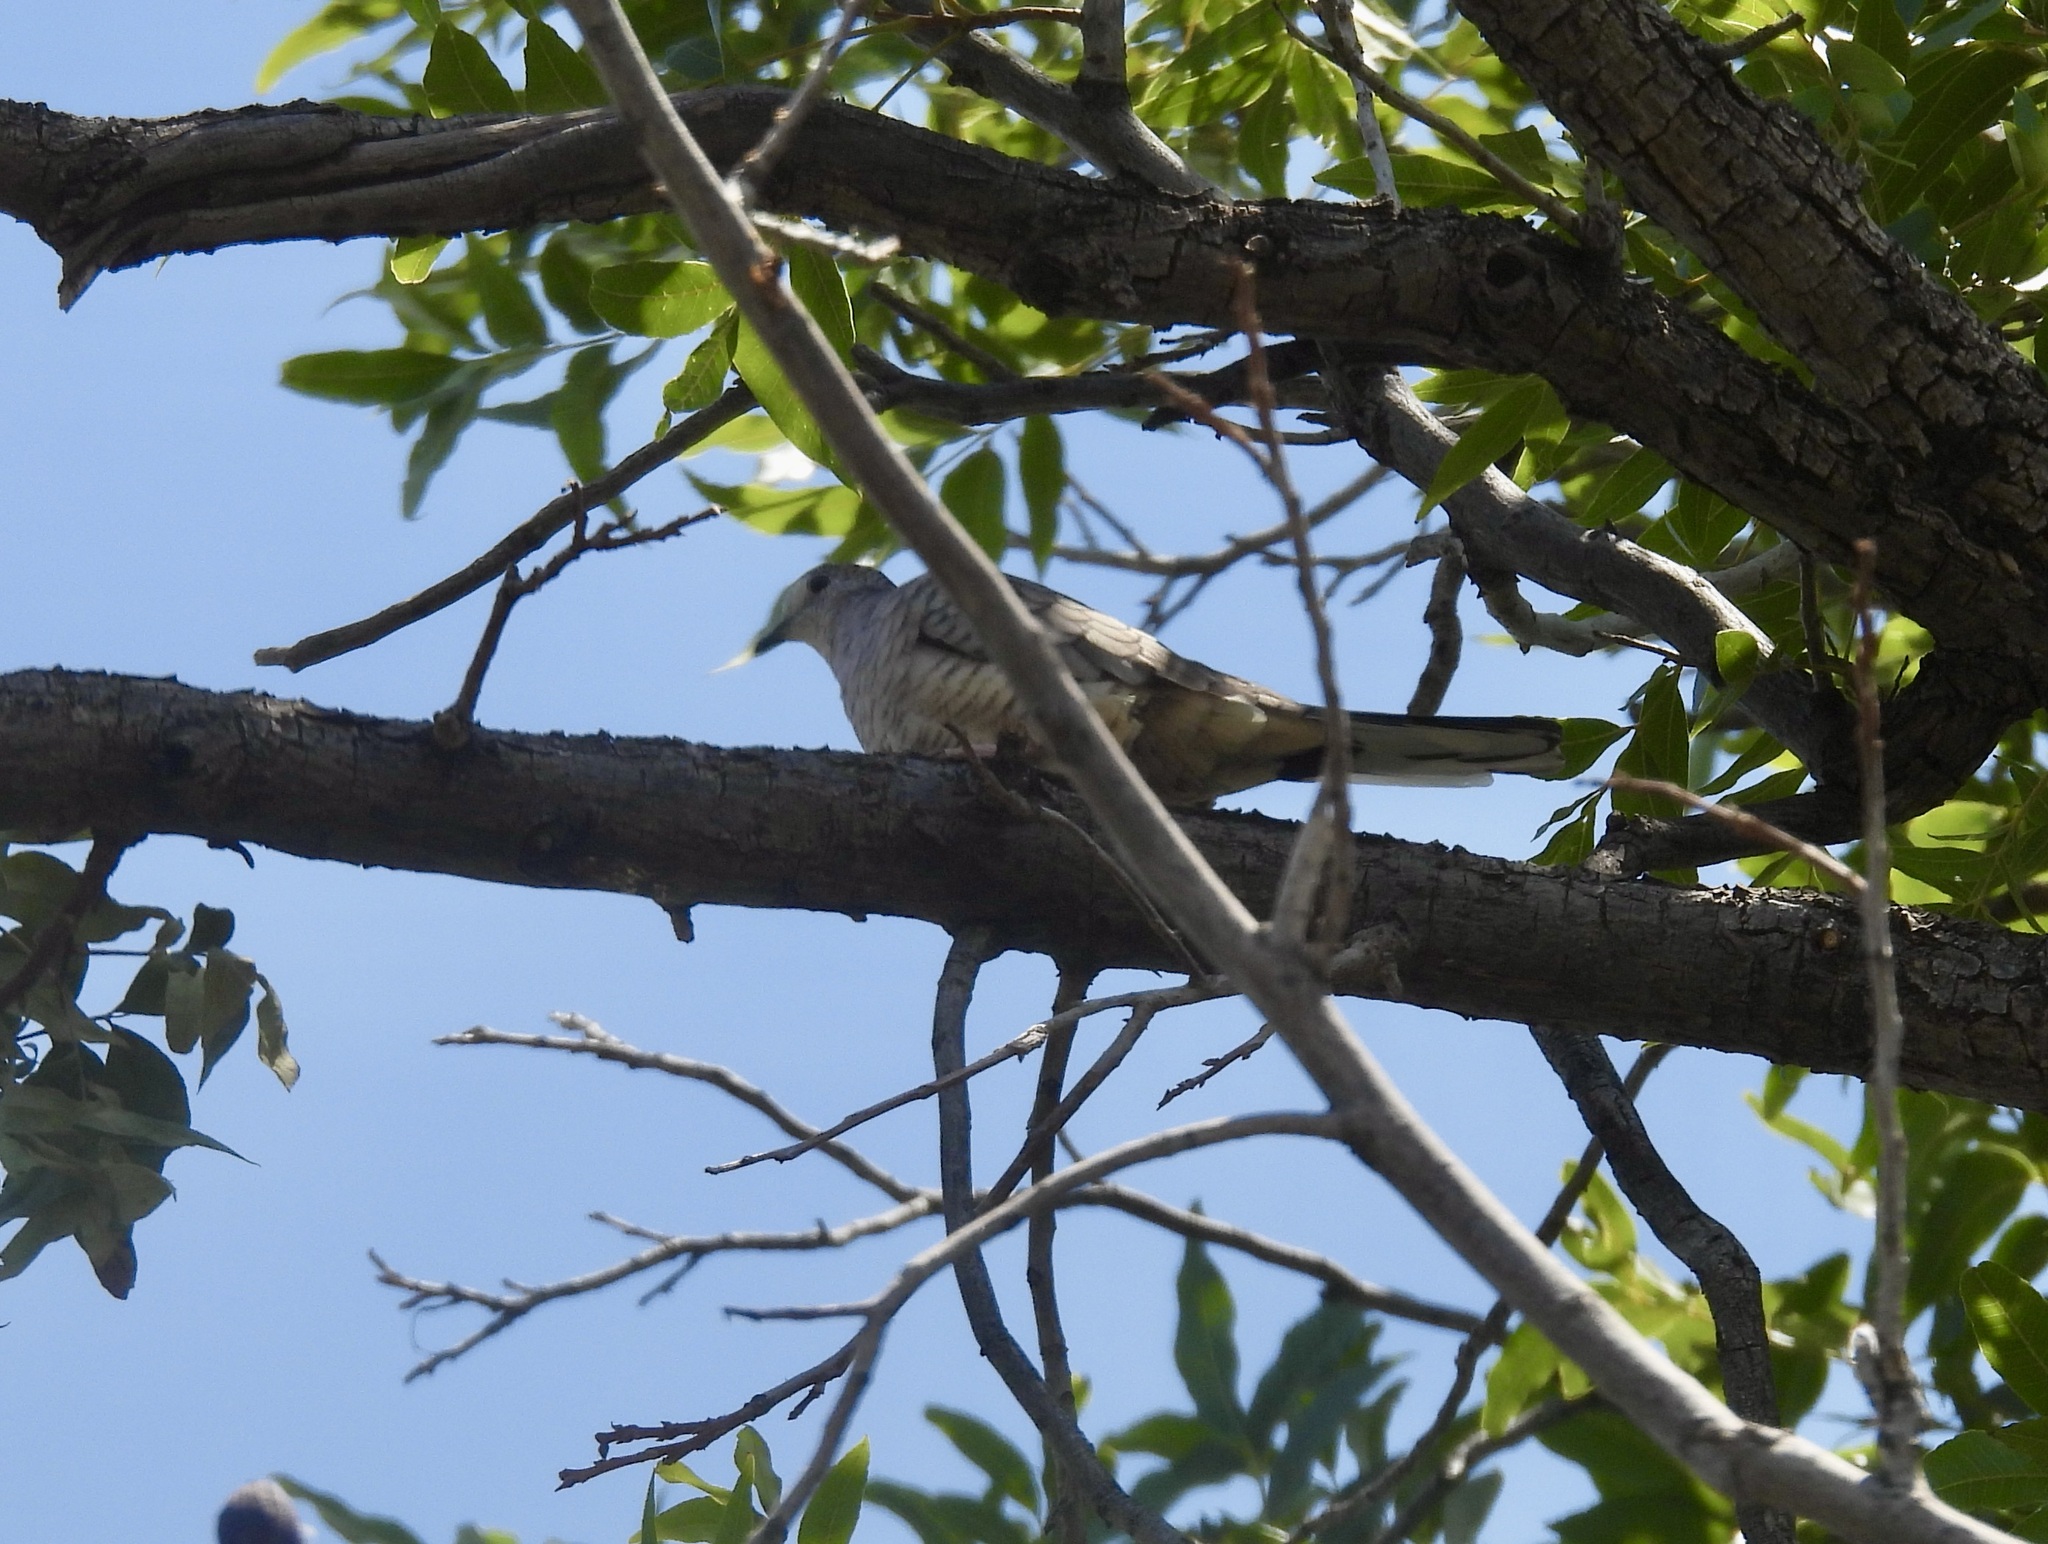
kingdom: Animalia
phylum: Chordata
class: Aves
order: Columbiformes
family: Columbidae
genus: Columbina
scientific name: Columbina inca
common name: Inca dove
